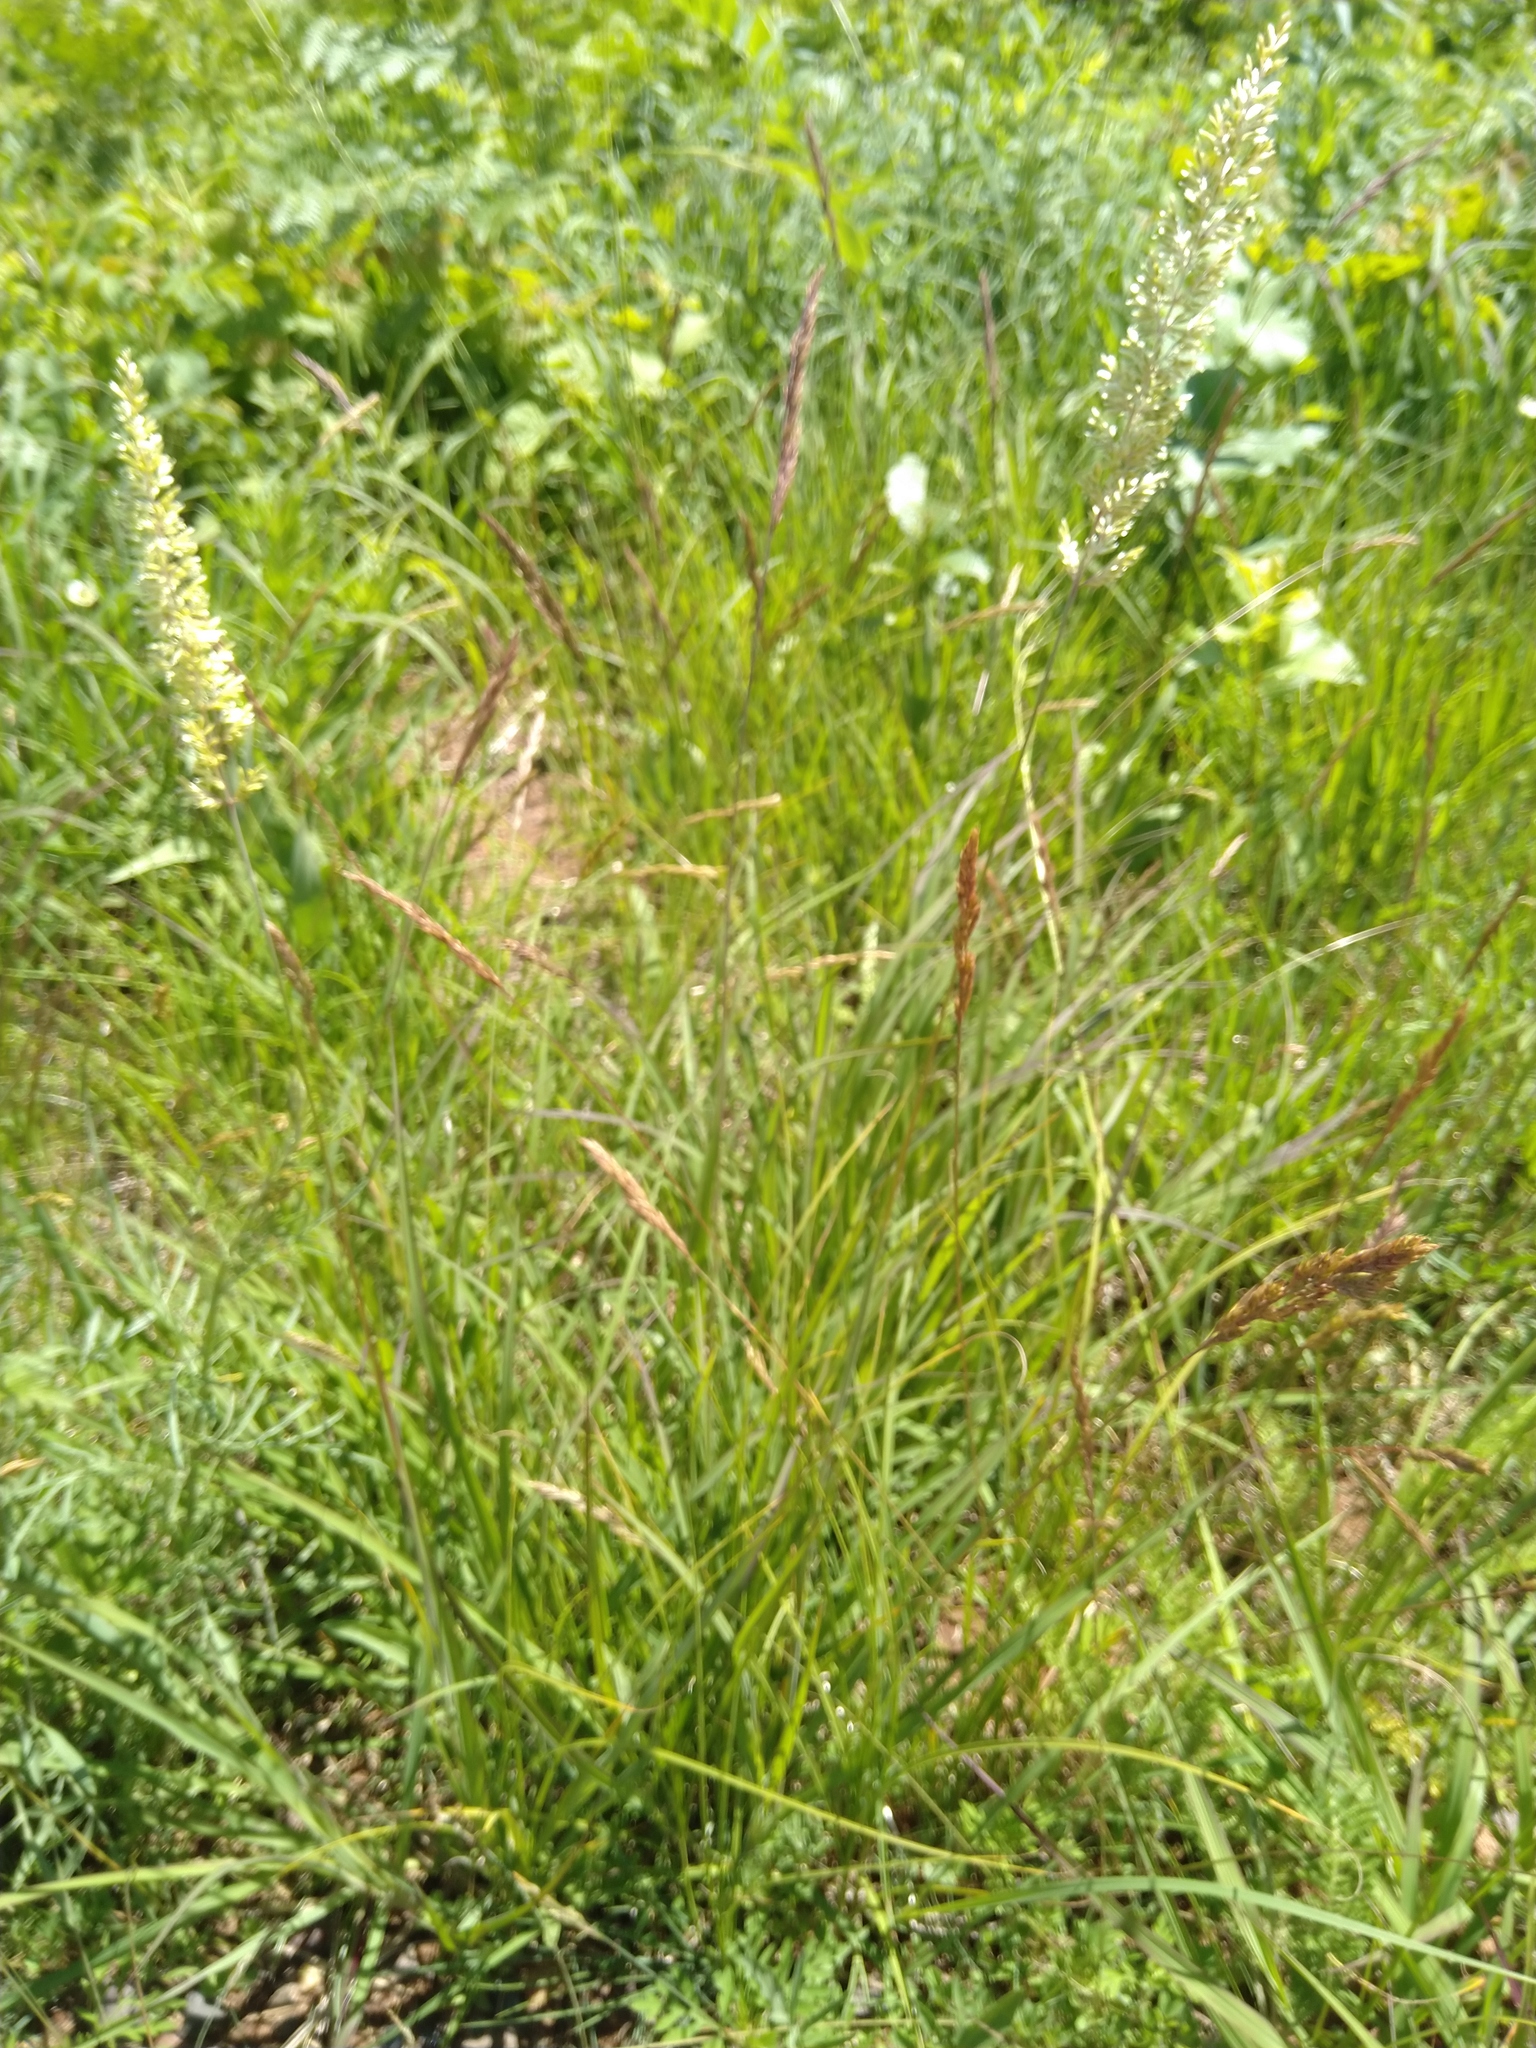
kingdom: Plantae
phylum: Tracheophyta
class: Liliopsida
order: Poales
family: Poaceae
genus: Koeleria
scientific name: Koeleria macrantha
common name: Crested hair-grass
